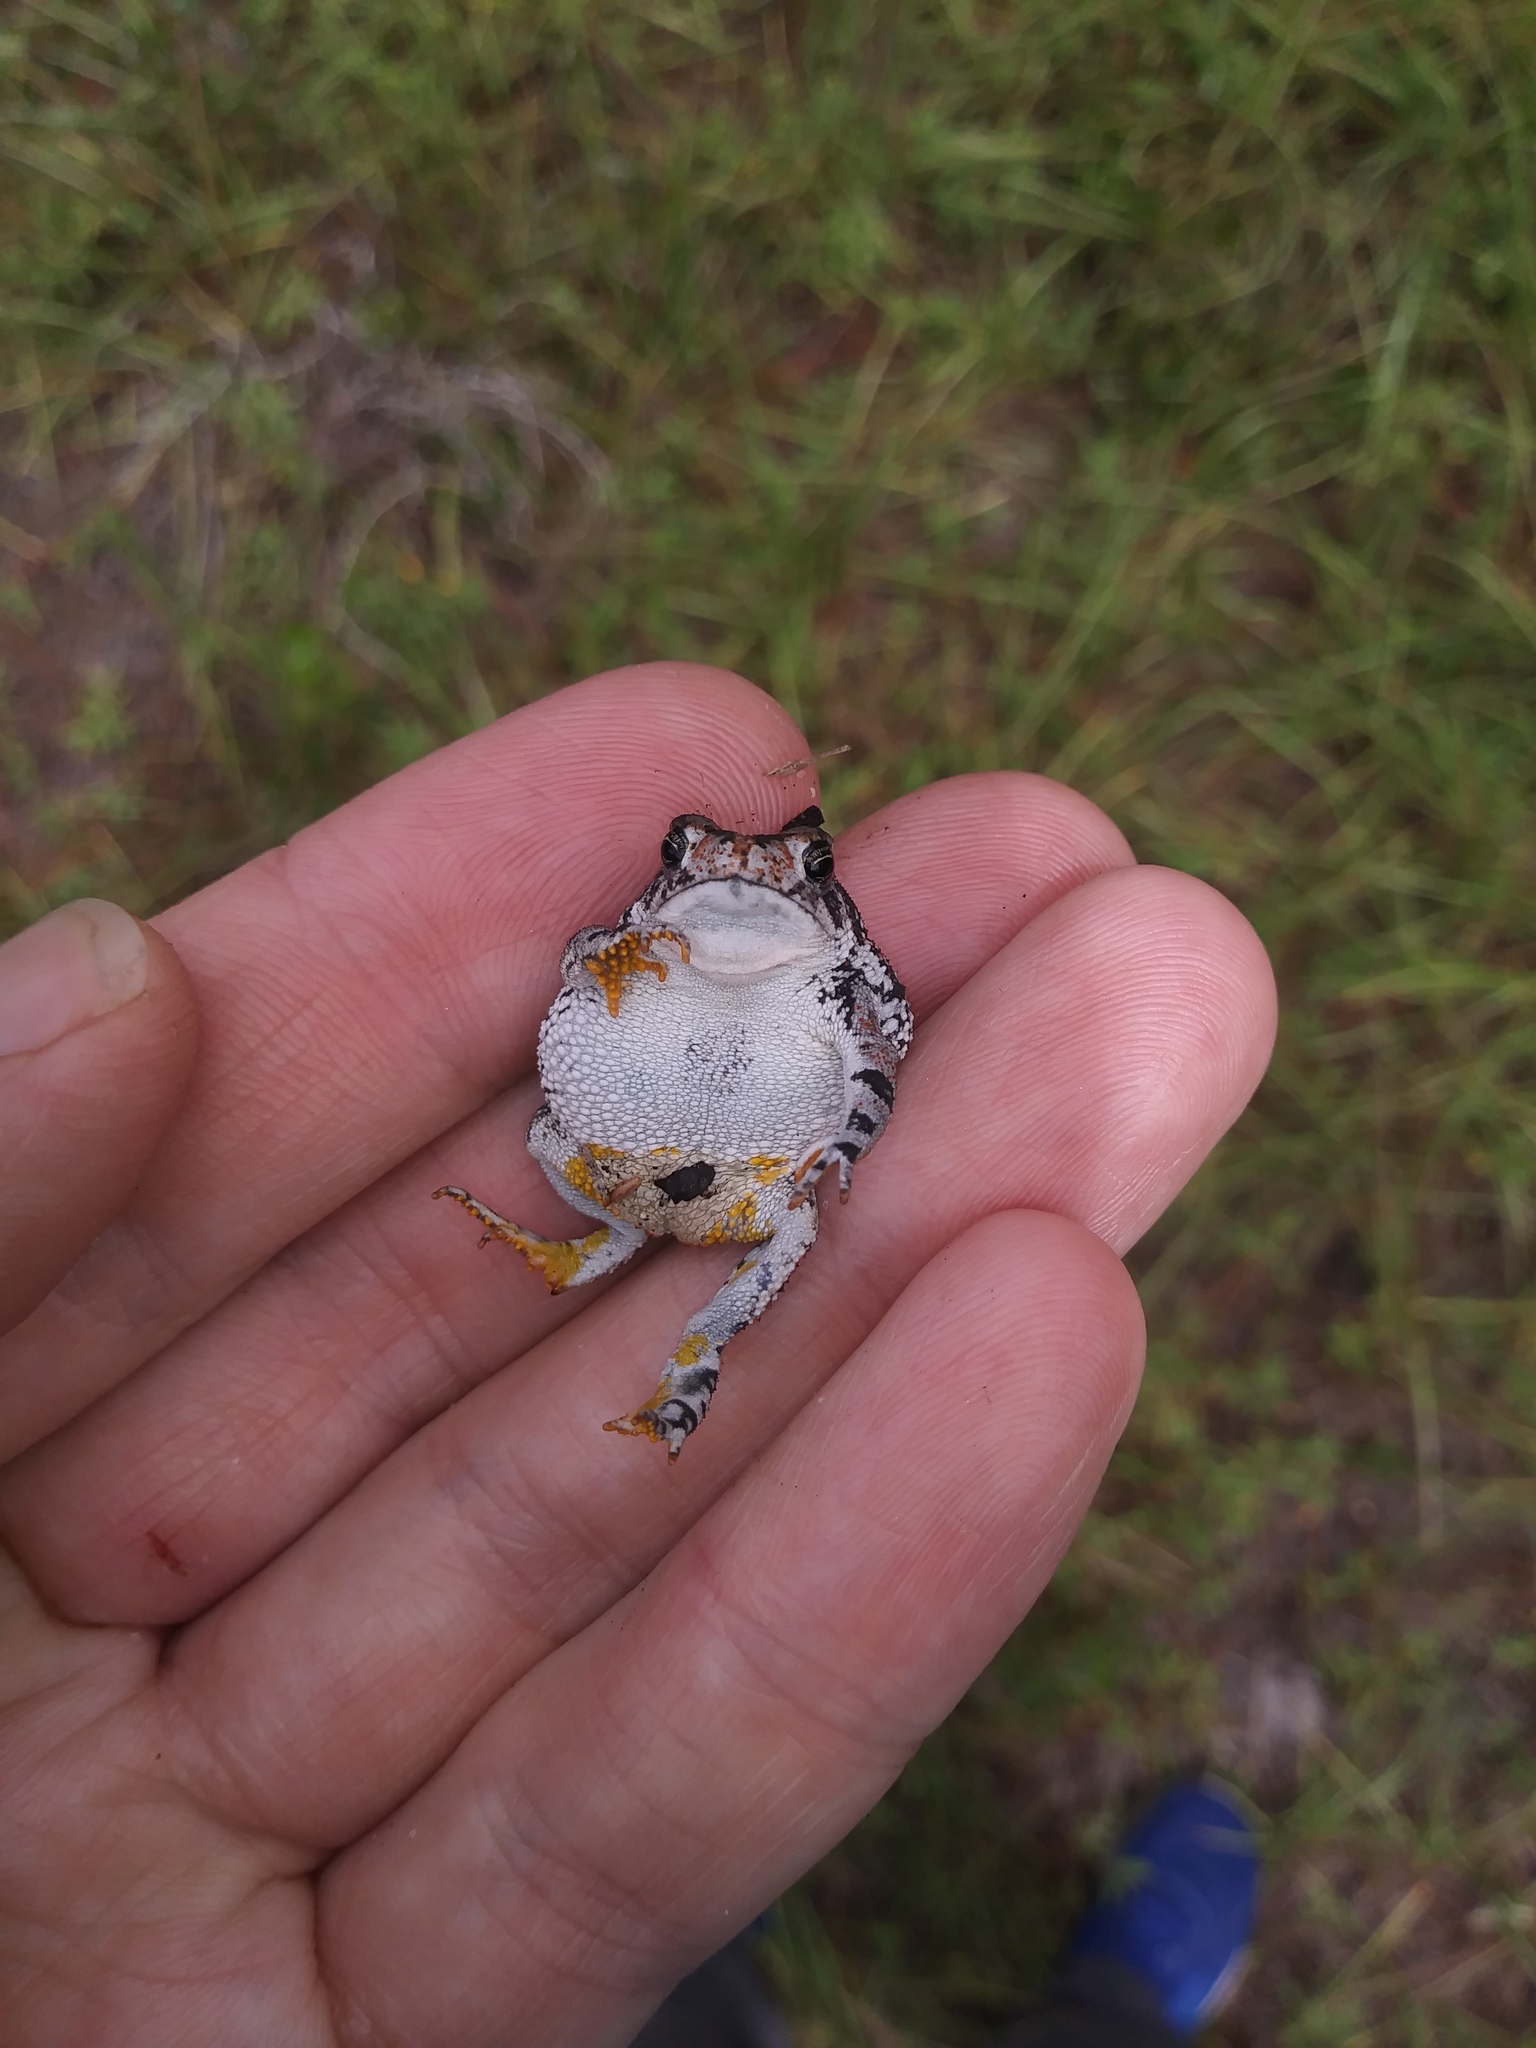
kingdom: Animalia
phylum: Chordata
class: Amphibia
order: Anura
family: Bufonidae
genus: Anaxyrus
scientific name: Anaxyrus quercicus
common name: Oak toad
